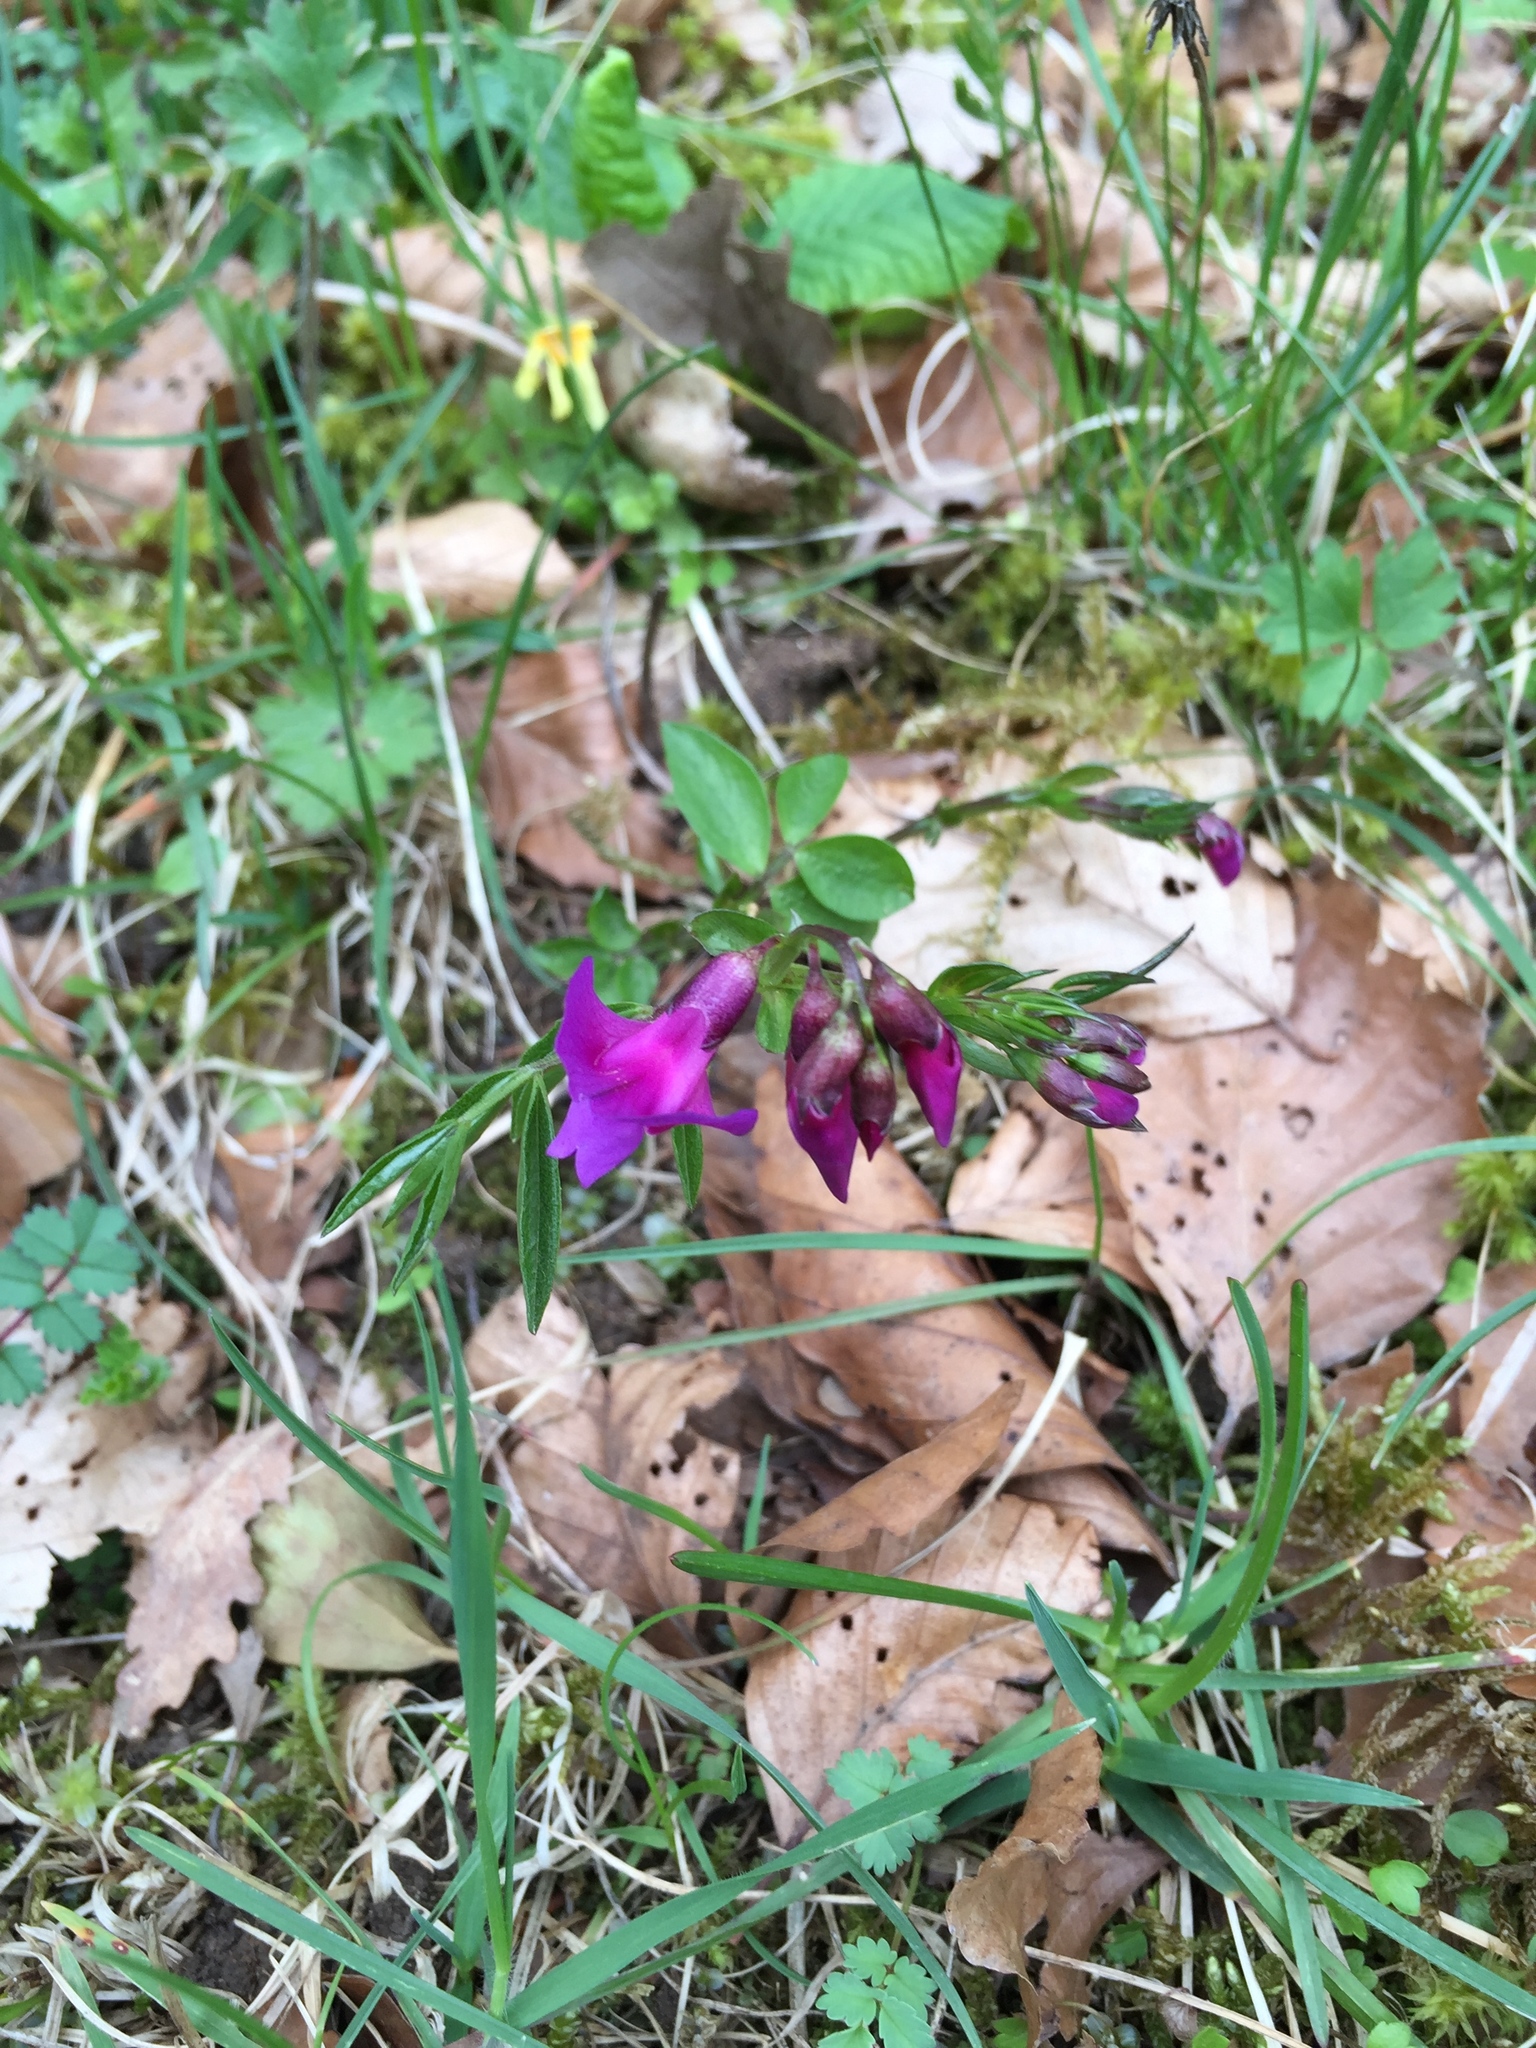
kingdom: Plantae
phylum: Tracheophyta
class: Magnoliopsida
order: Fabales
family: Fabaceae
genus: Lathyrus
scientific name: Lathyrus vernus
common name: Spring pea
